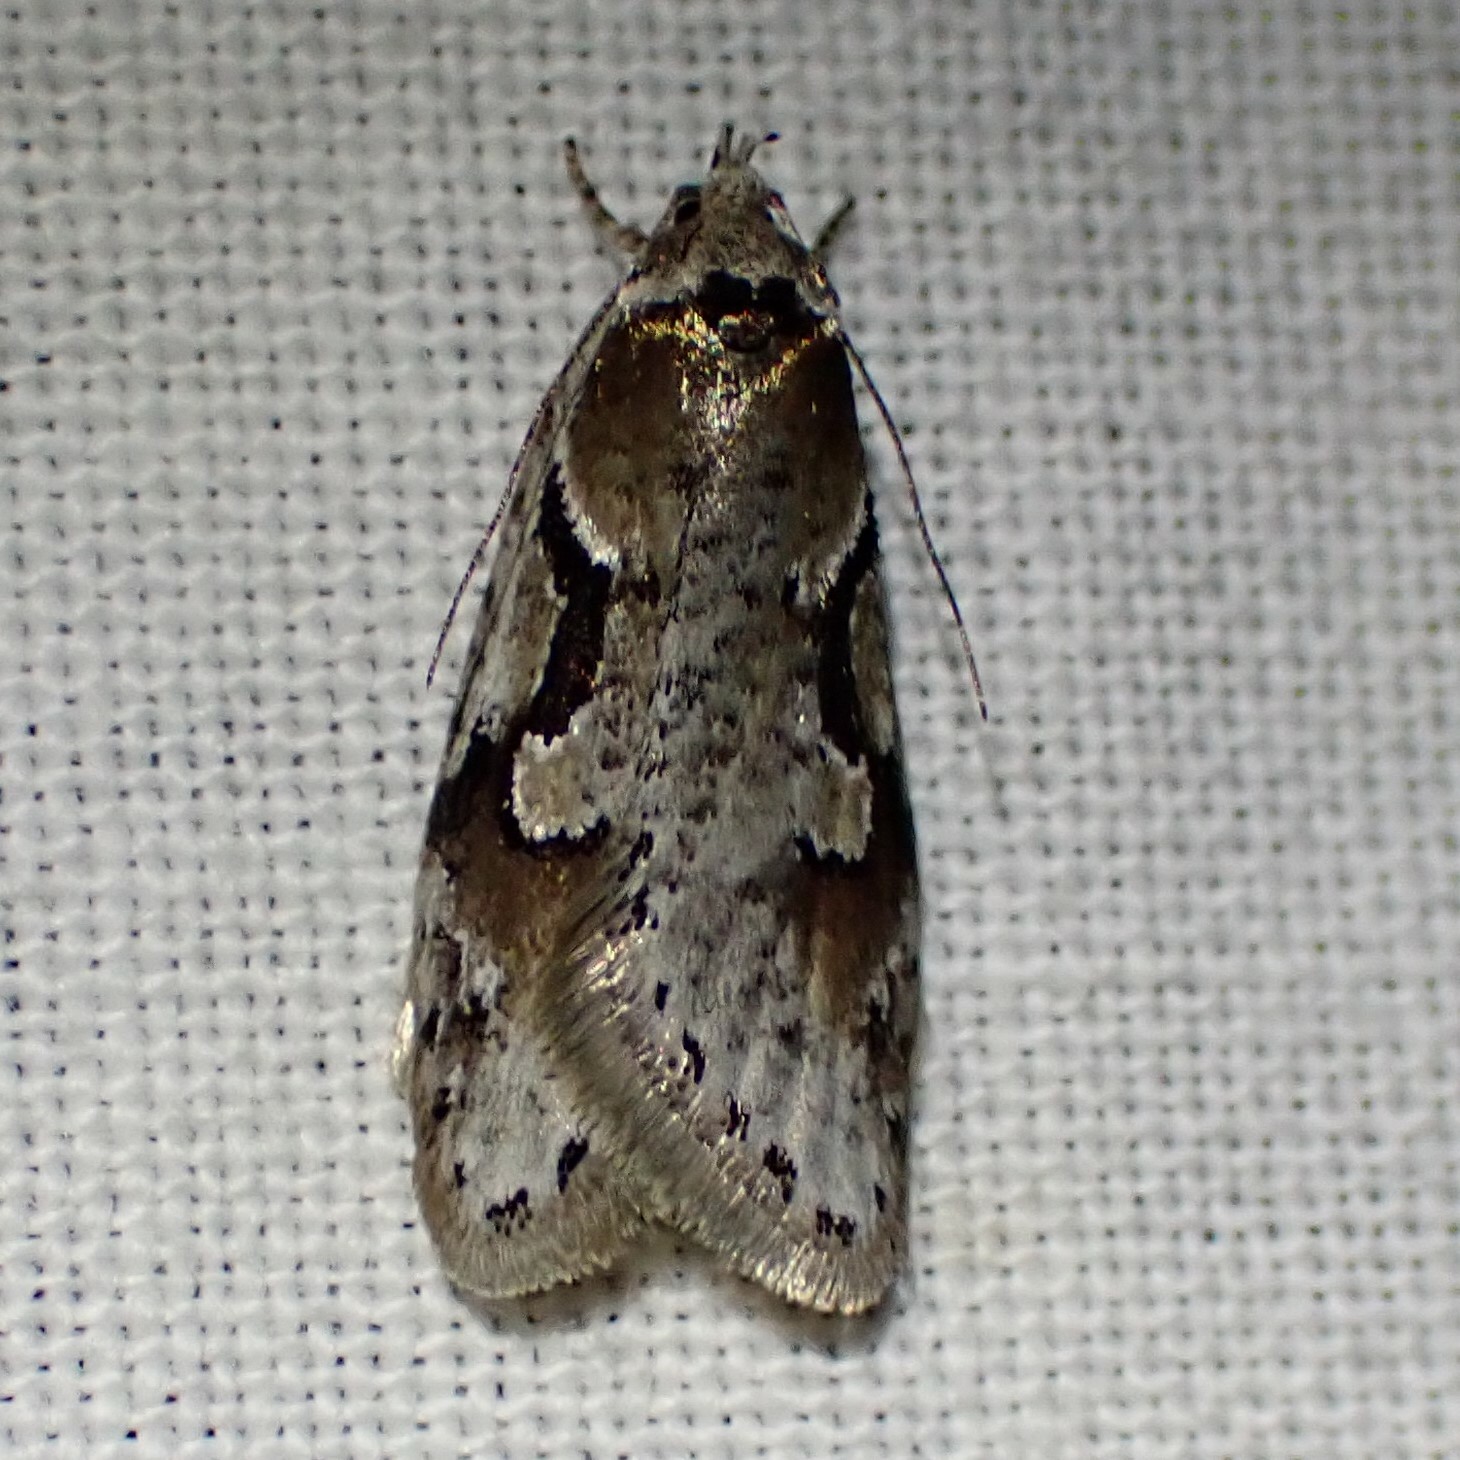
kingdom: Animalia
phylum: Arthropoda
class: Insecta
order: Lepidoptera
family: Depressariidae
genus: Semioscopis
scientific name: Semioscopis merriccella
